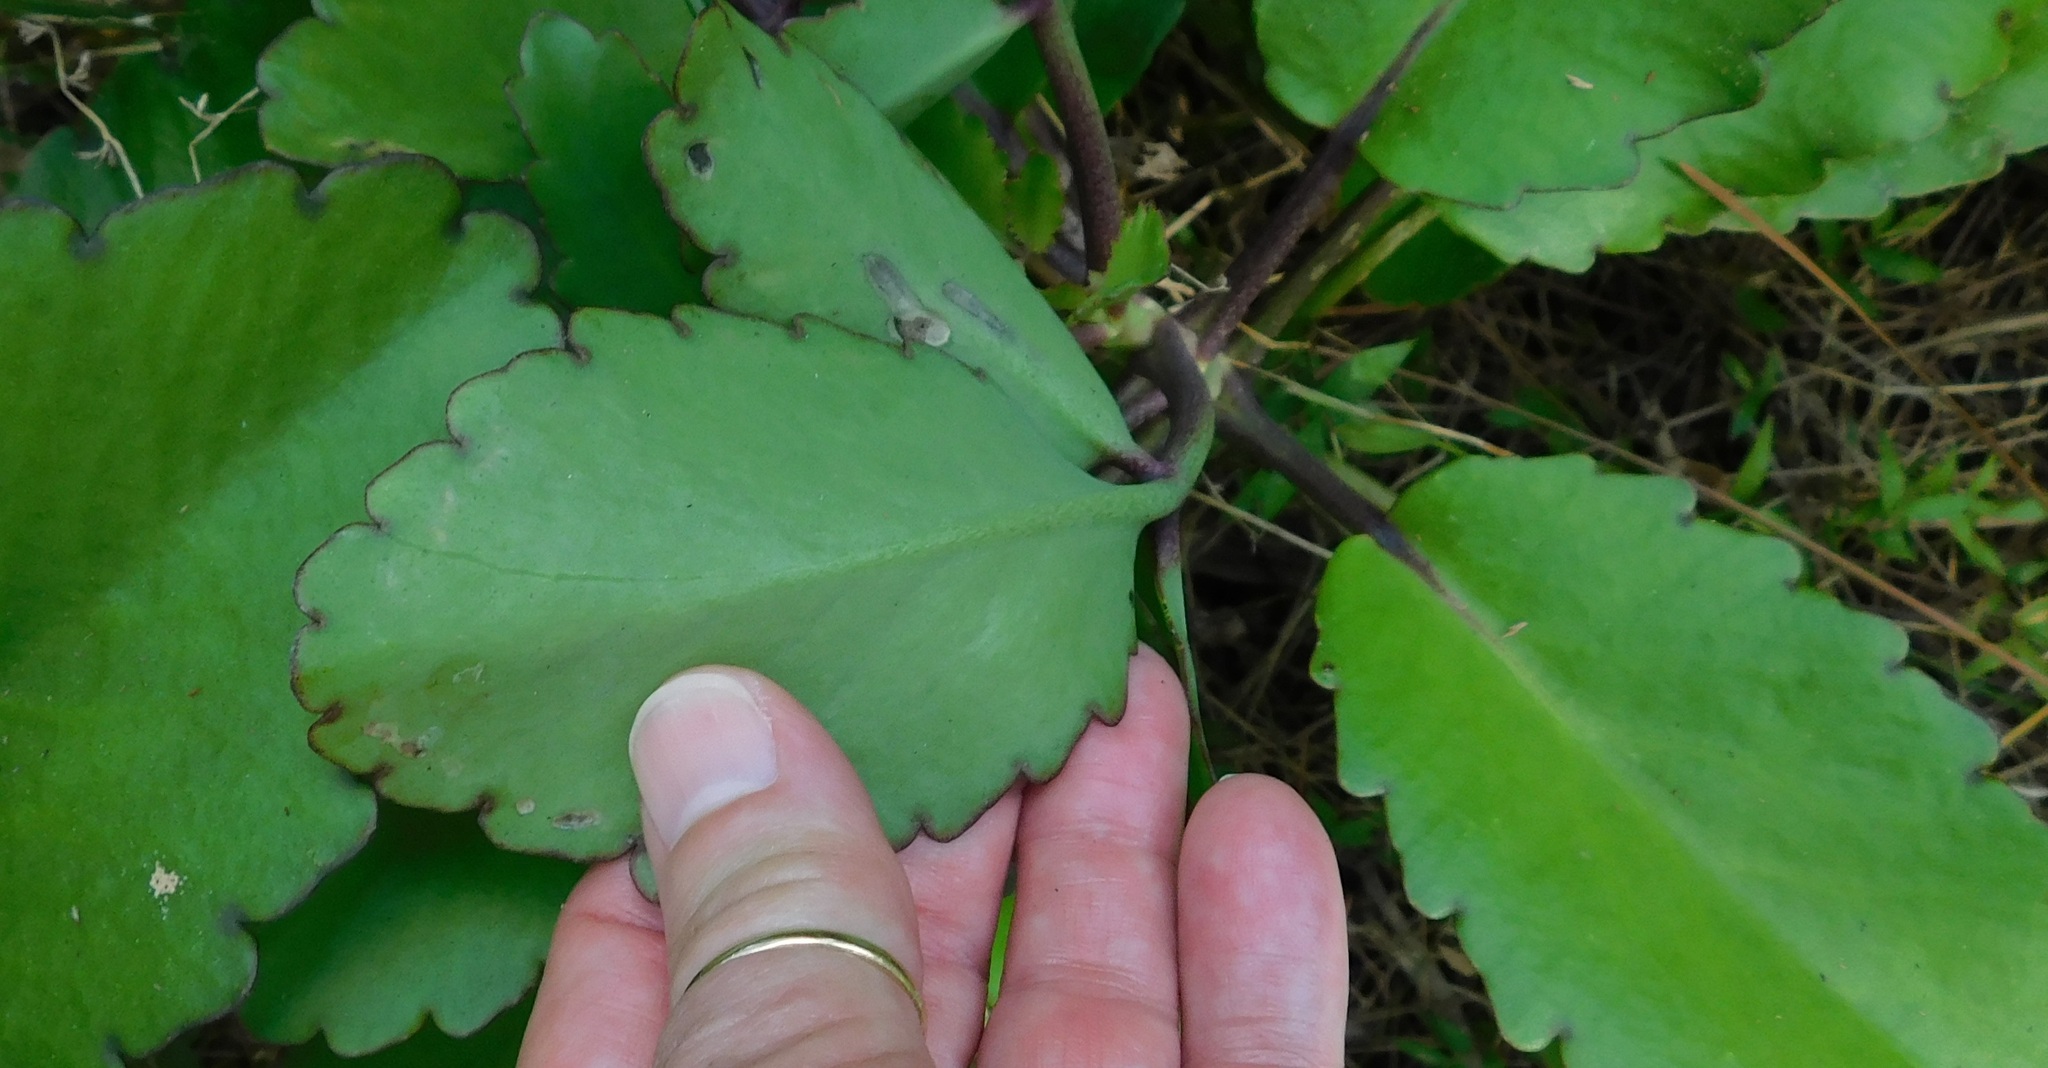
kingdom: Plantae
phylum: Tracheophyta
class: Magnoliopsida
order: Saxifragales
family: Crassulaceae
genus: Kalanchoe
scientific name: Kalanchoe pinnata
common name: Cathedral bells
